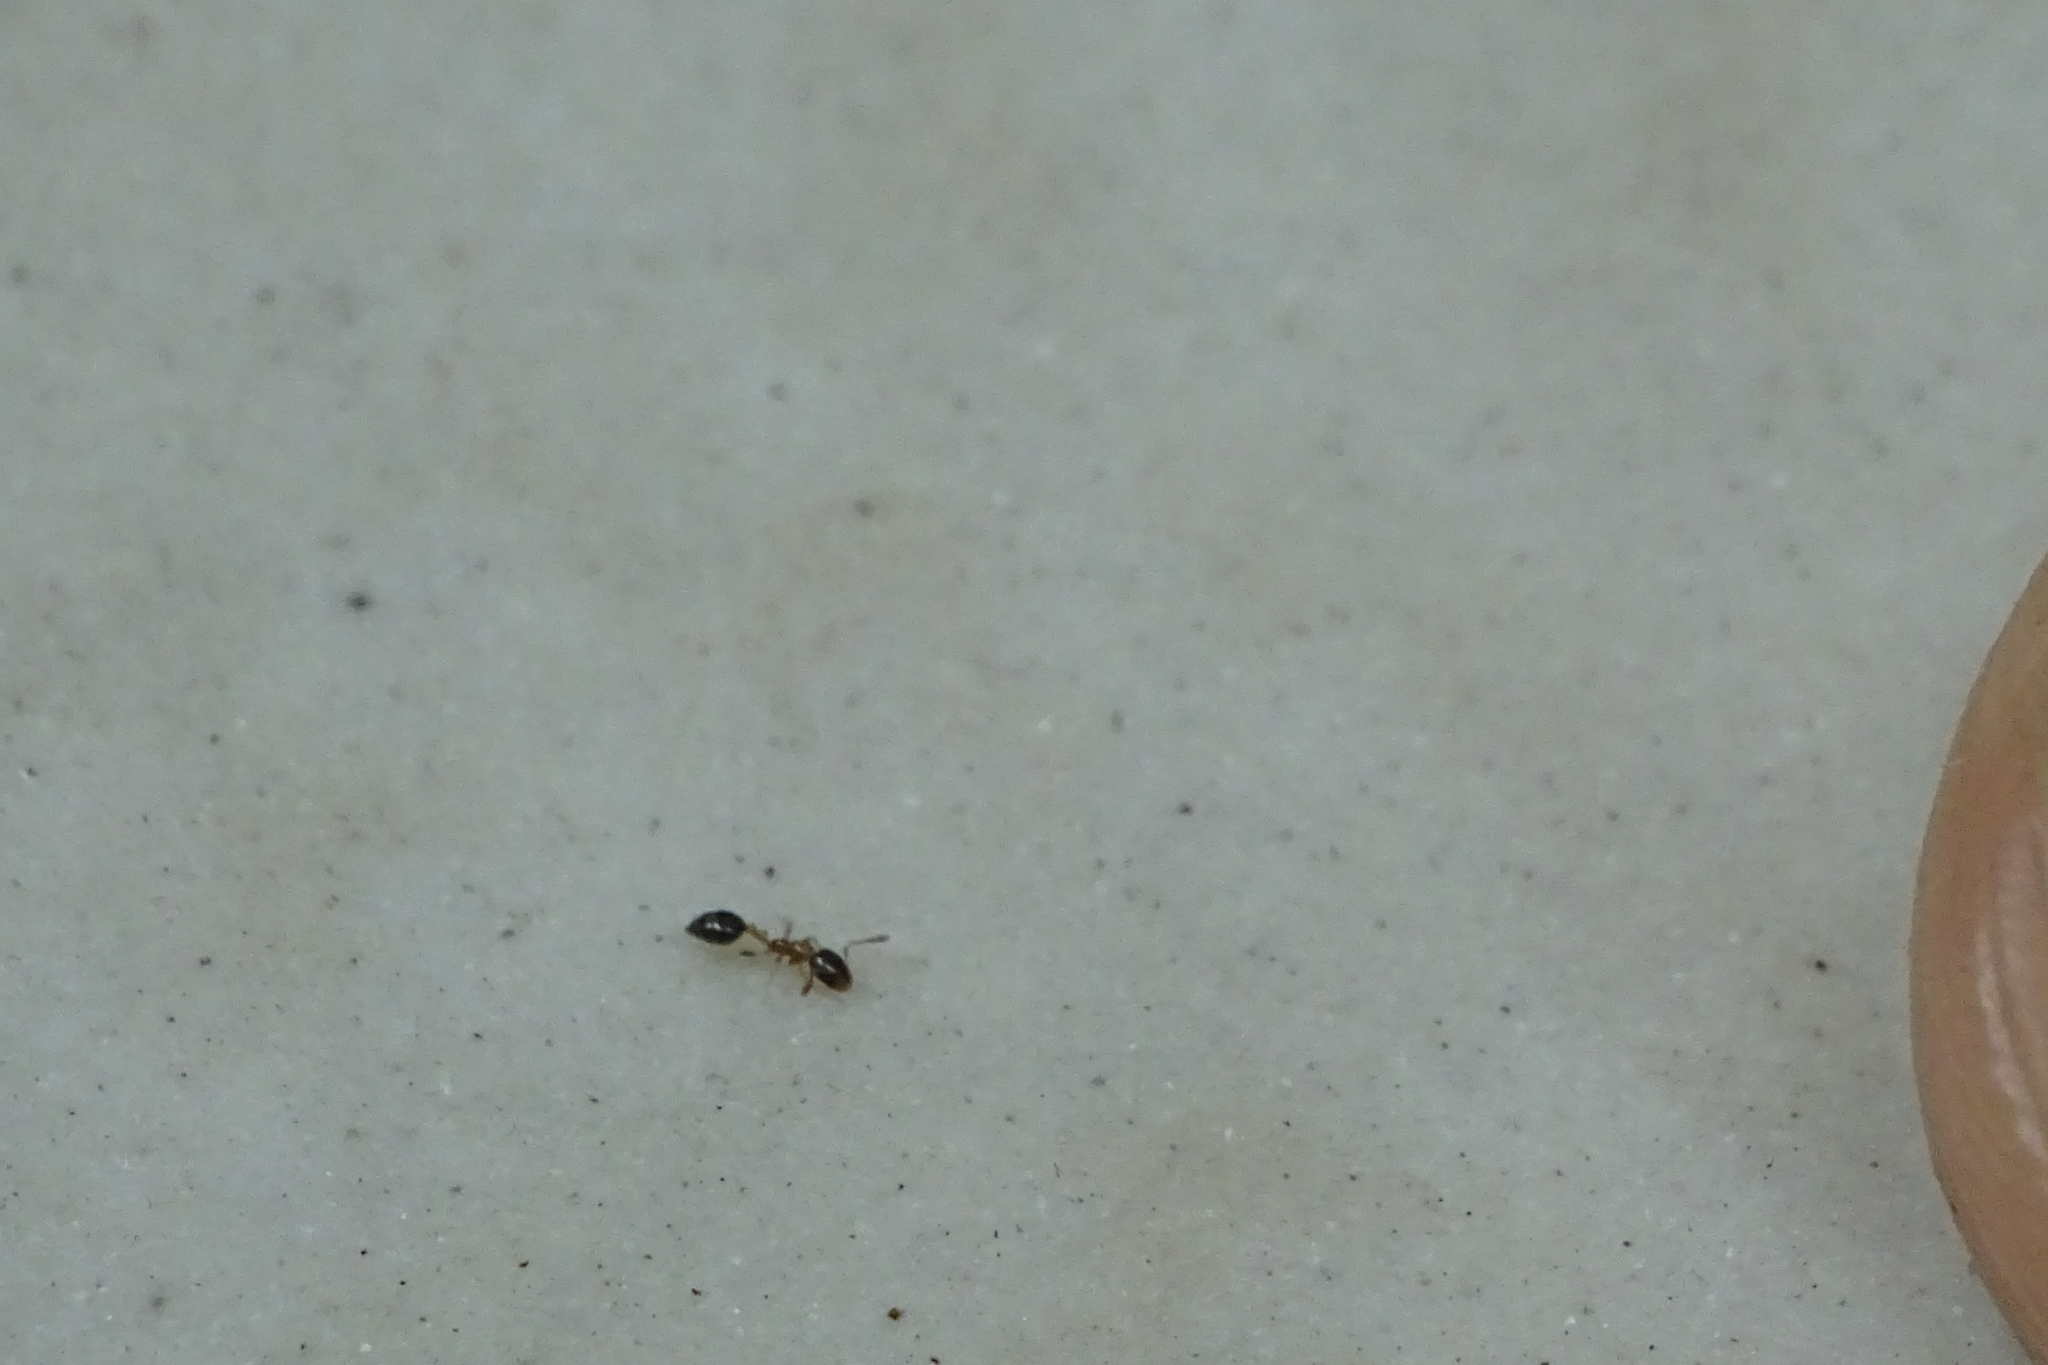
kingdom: Animalia
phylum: Arthropoda
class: Insecta
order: Hymenoptera
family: Formicidae
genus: Monomorium
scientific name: Monomorium floricola
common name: Bicolored trailing ant
